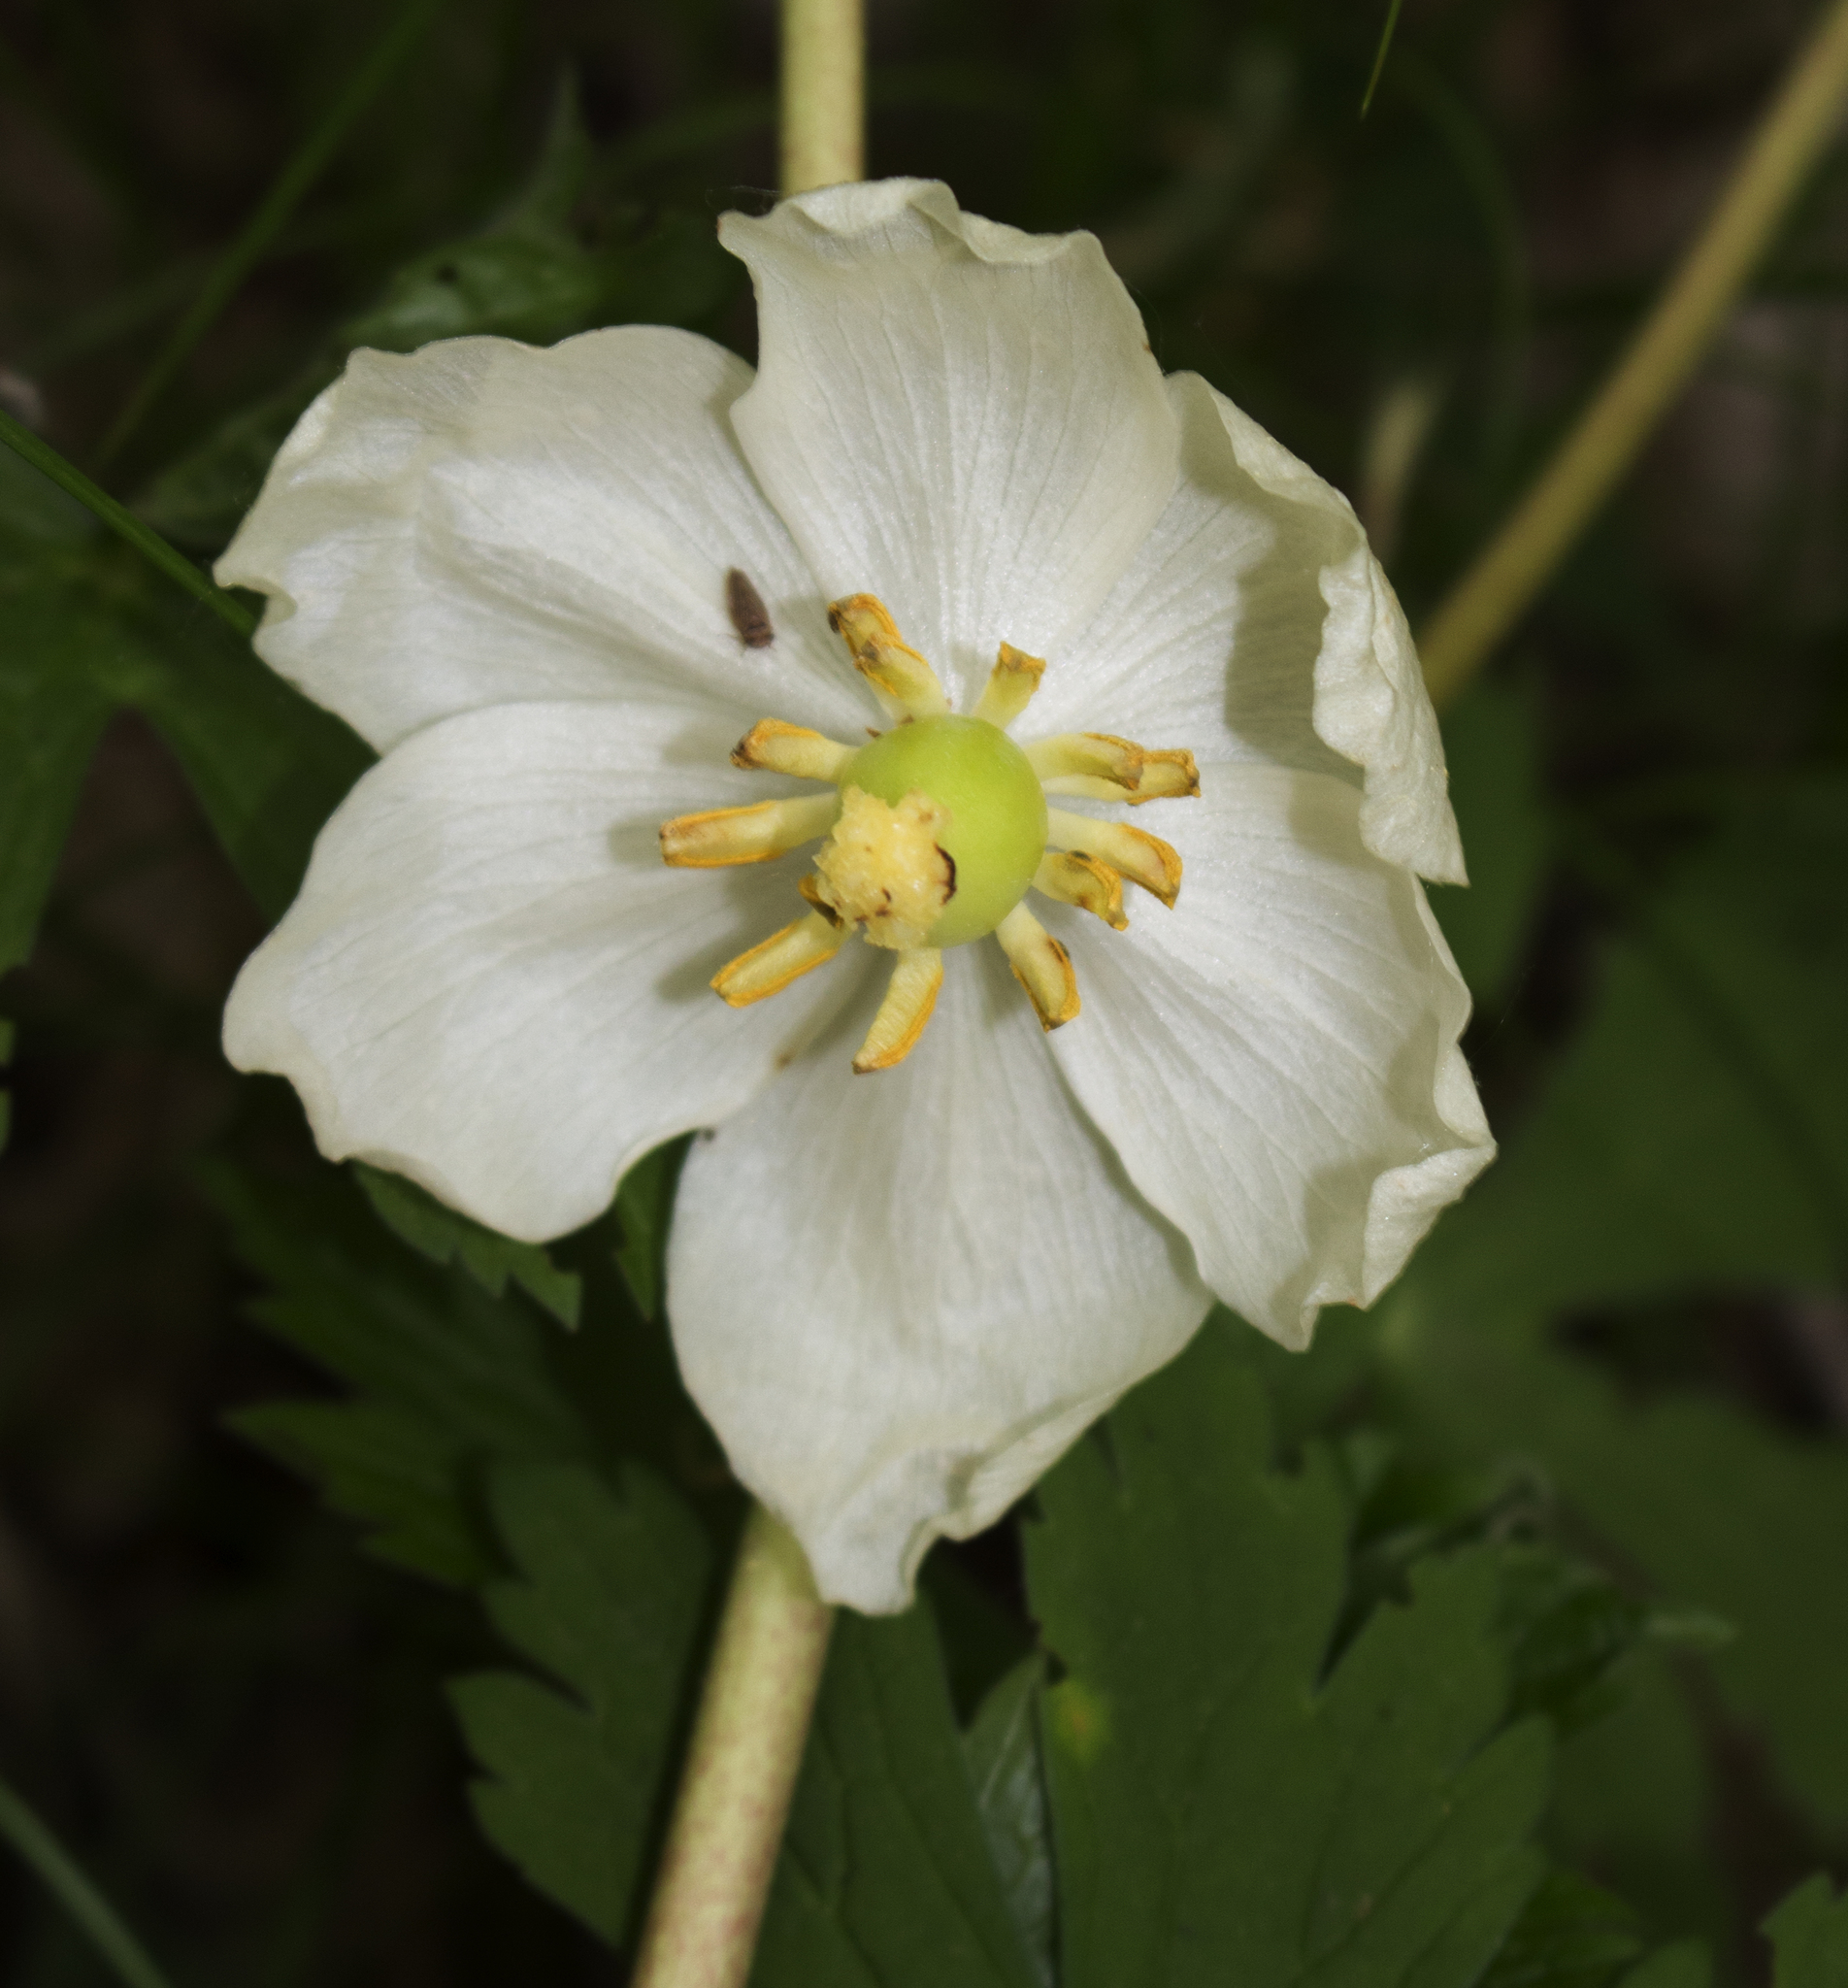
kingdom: Plantae
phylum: Tracheophyta
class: Magnoliopsida
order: Ranunculales
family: Berberidaceae
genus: Podophyllum
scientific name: Podophyllum peltatum
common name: Wild mandrake
